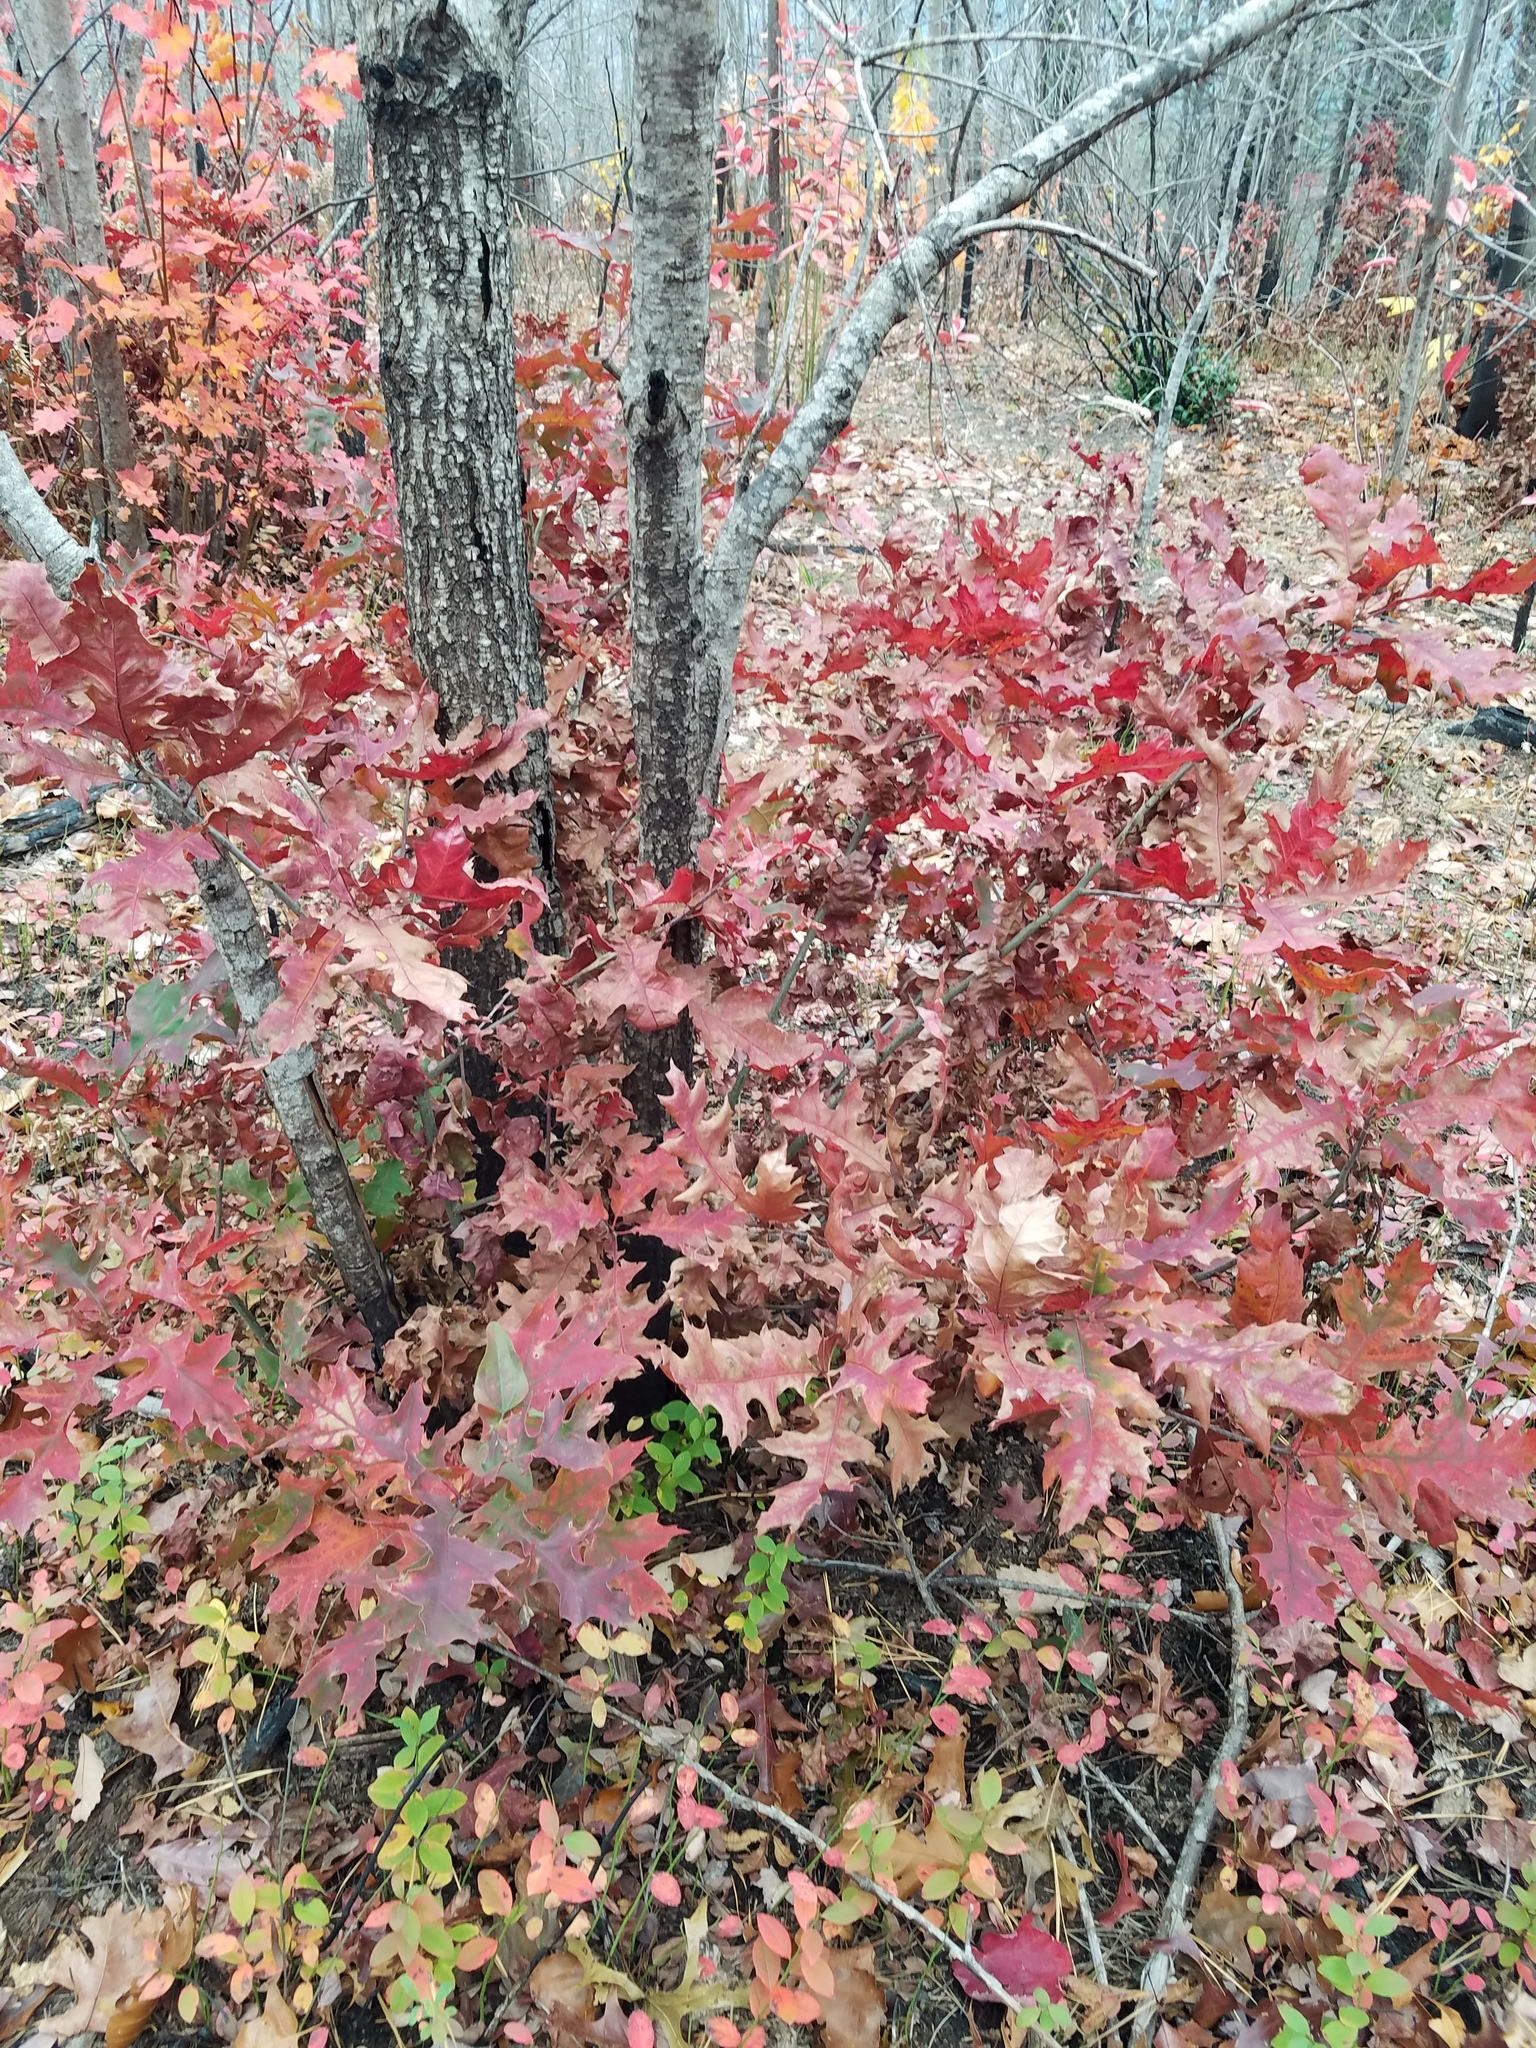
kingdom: Plantae
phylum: Tracheophyta
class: Magnoliopsida
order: Fagales
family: Fagaceae
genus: Quercus
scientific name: Quercus rubra
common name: Red oak
